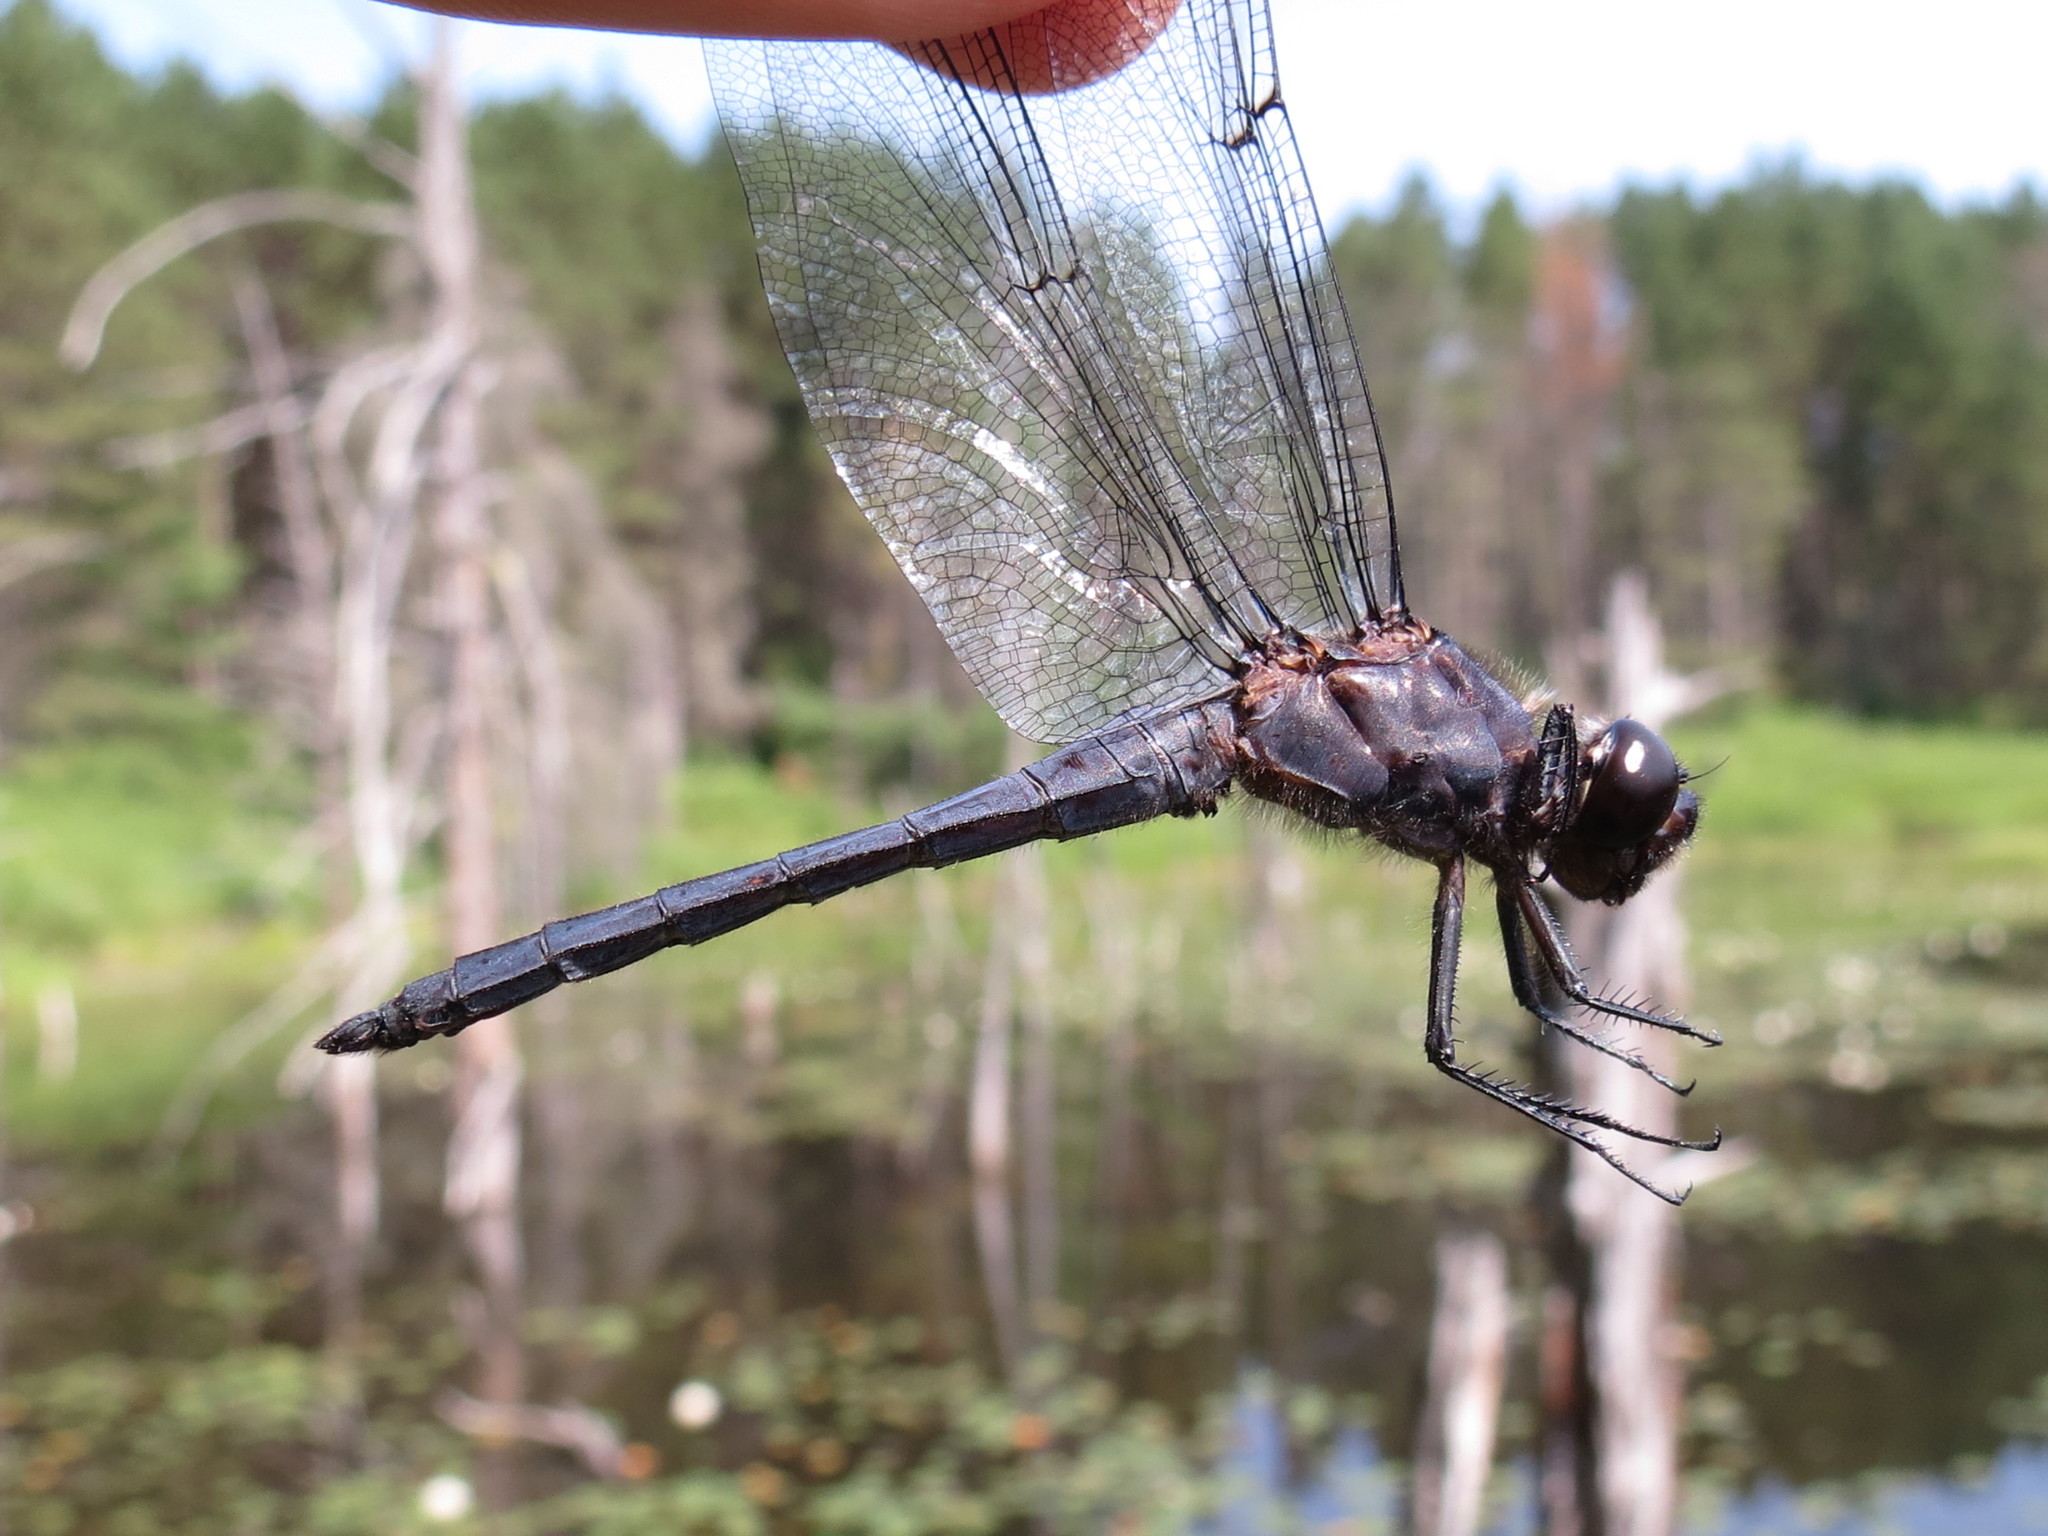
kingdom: Animalia
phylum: Arthropoda
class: Insecta
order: Odonata
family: Libellulidae
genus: Libellula
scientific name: Libellula incesta
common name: Slaty skimmer
